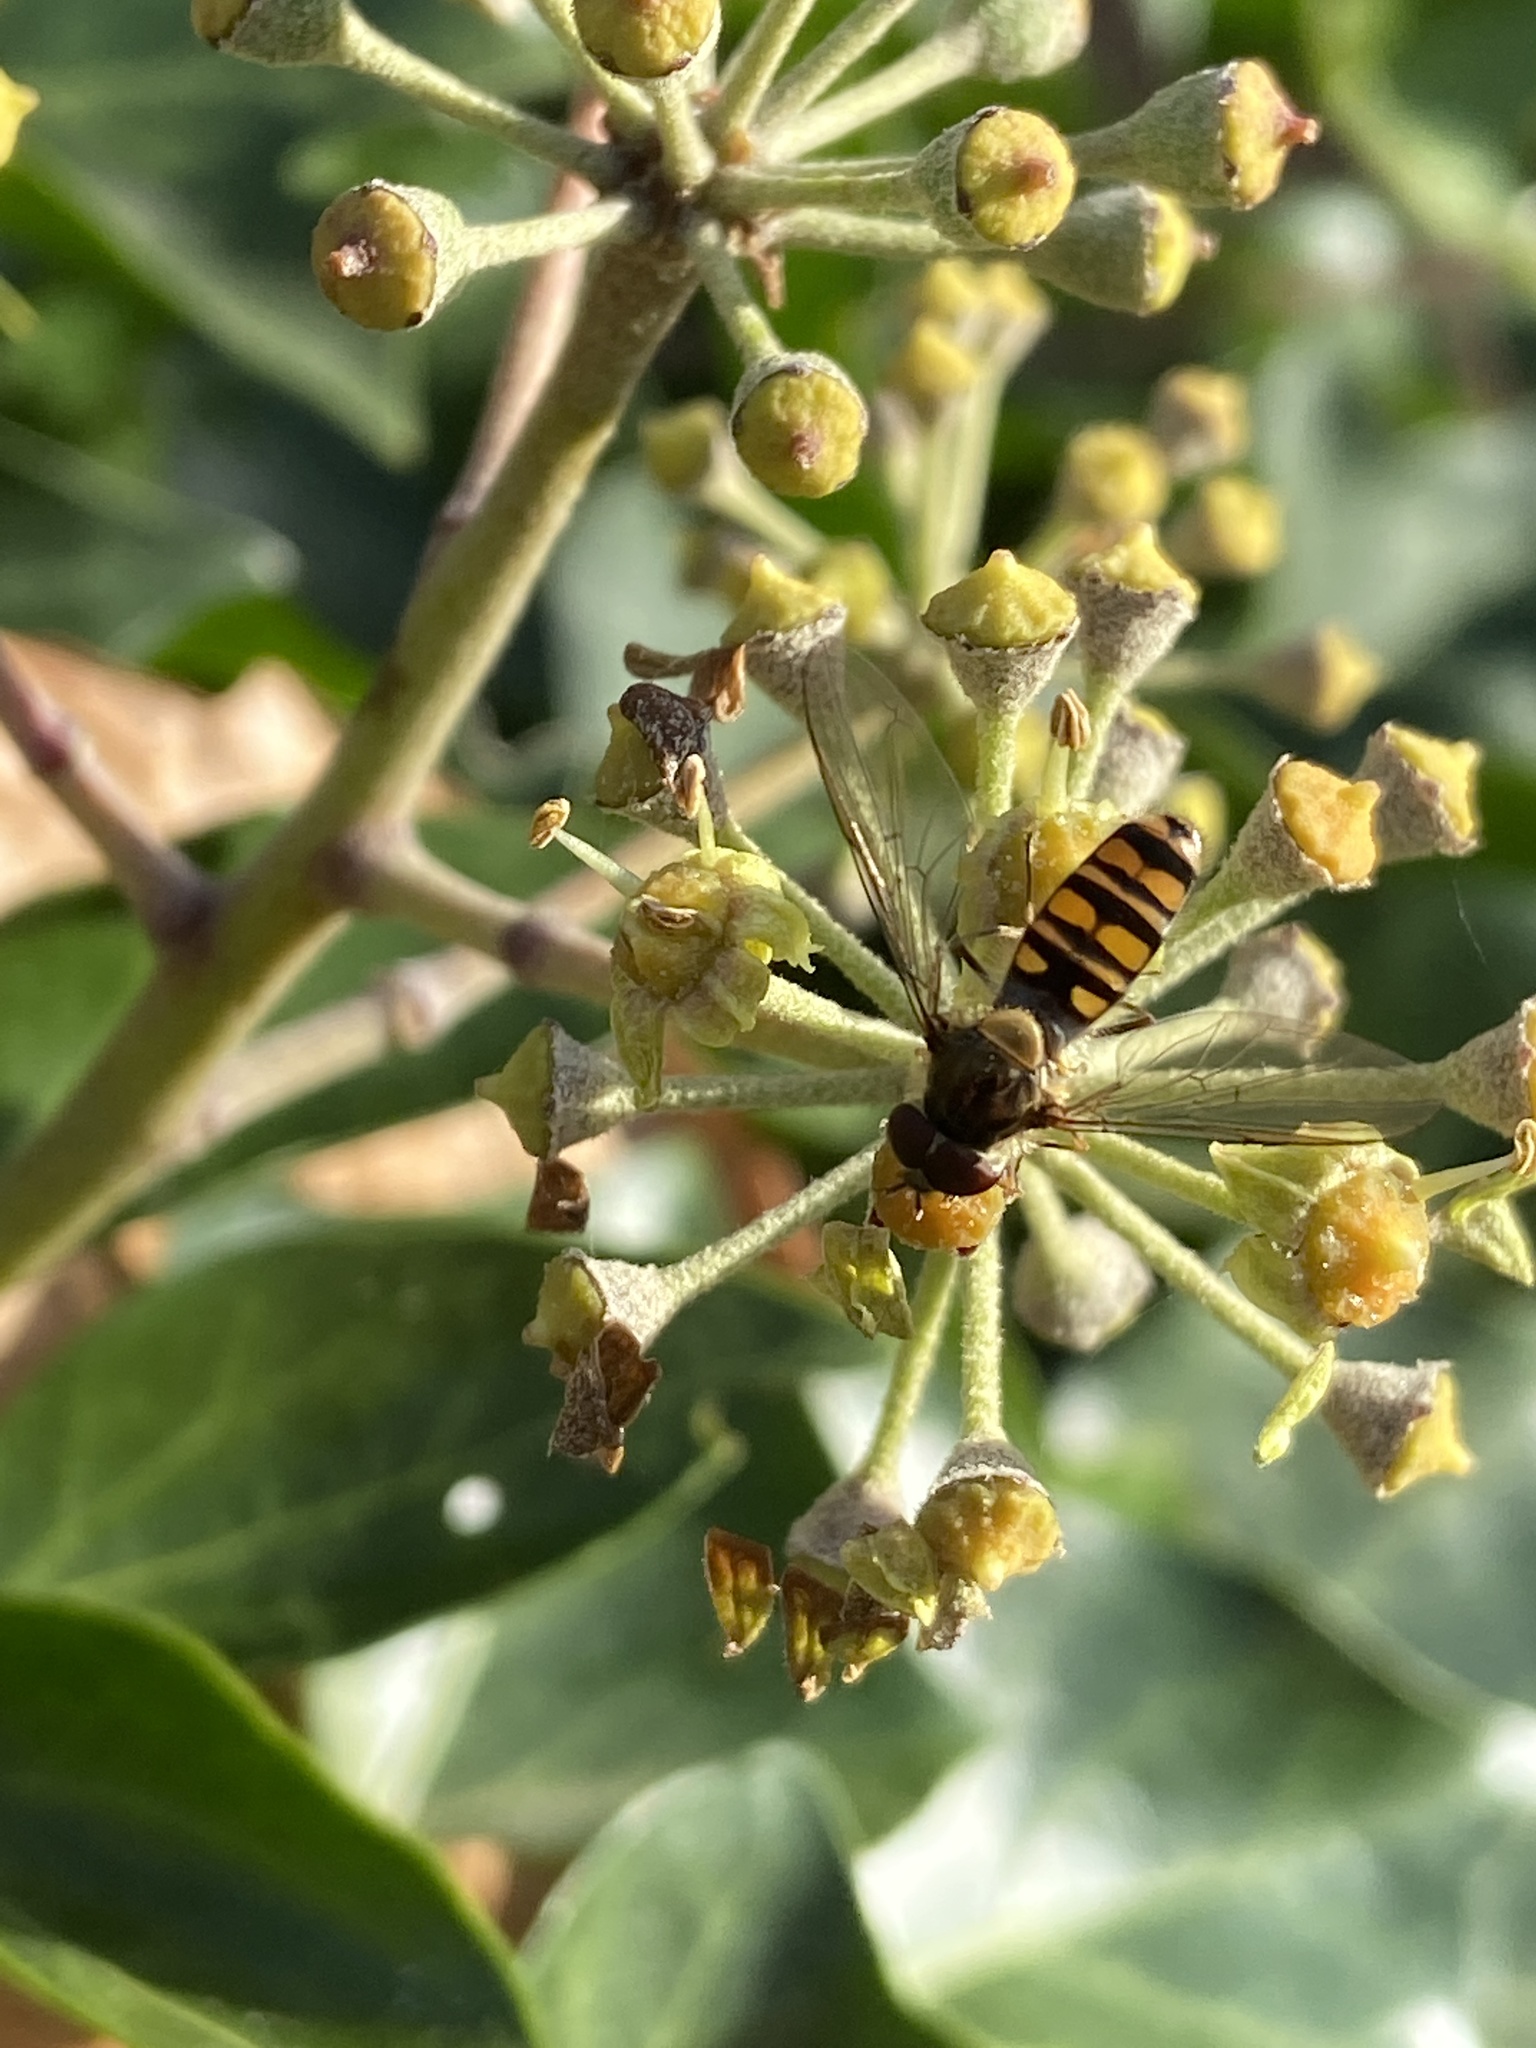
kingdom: Animalia
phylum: Arthropoda
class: Insecta
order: Diptera
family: Syrphidae
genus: Episyrphus
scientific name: Episyrphus balteatus
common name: Marmalade hoverfly
